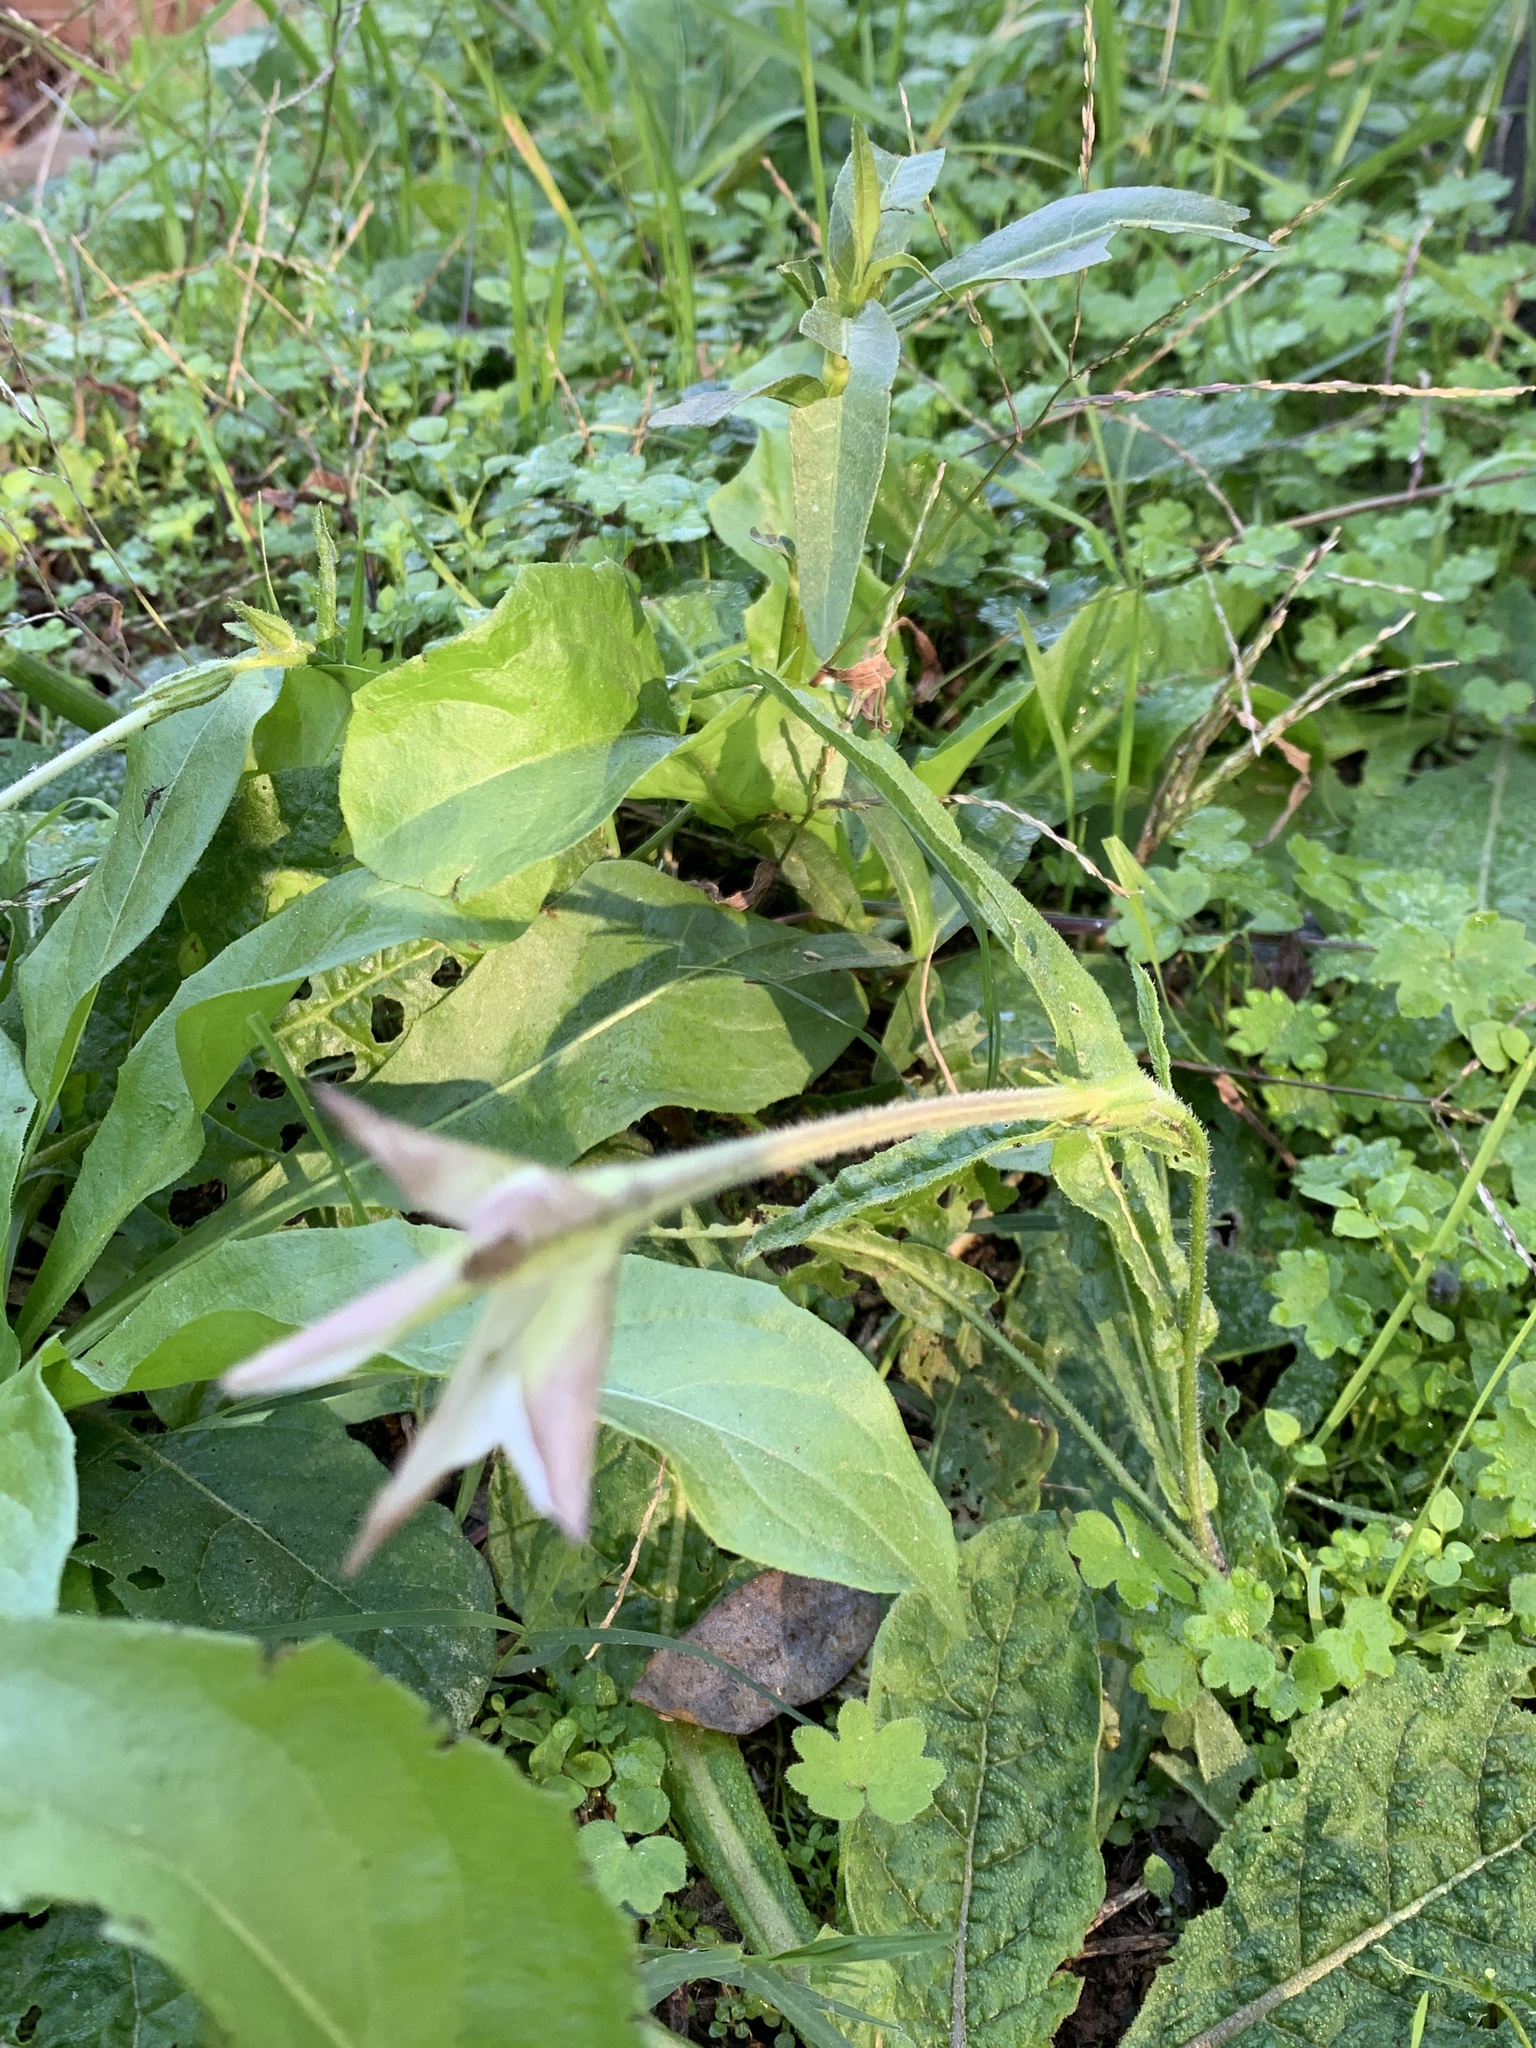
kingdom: Plantae
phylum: Tracheophyta
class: Magnoliopsida
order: Solanales
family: Solanaceae
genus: Nicotiana
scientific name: Nicotiana longiflora
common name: Long-flowered tobacco
